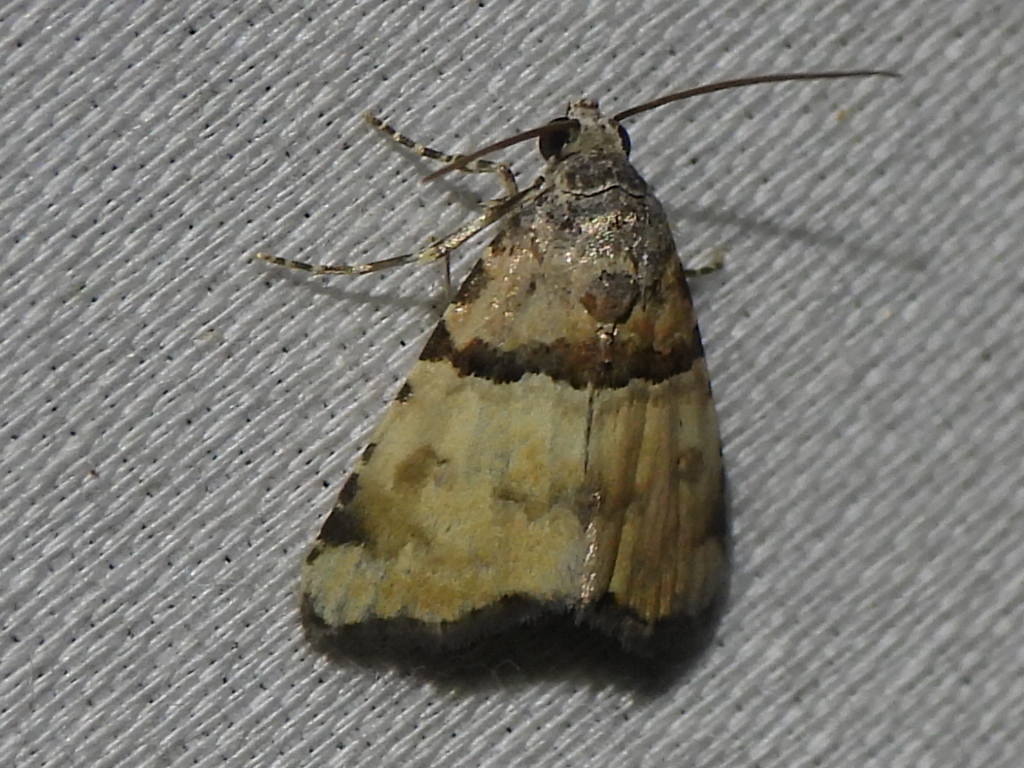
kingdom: Animalia
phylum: Arthropoda
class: Insecta
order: Lepidoptera
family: Noctuidae
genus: Cobubatha
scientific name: Cobubatha dividua
